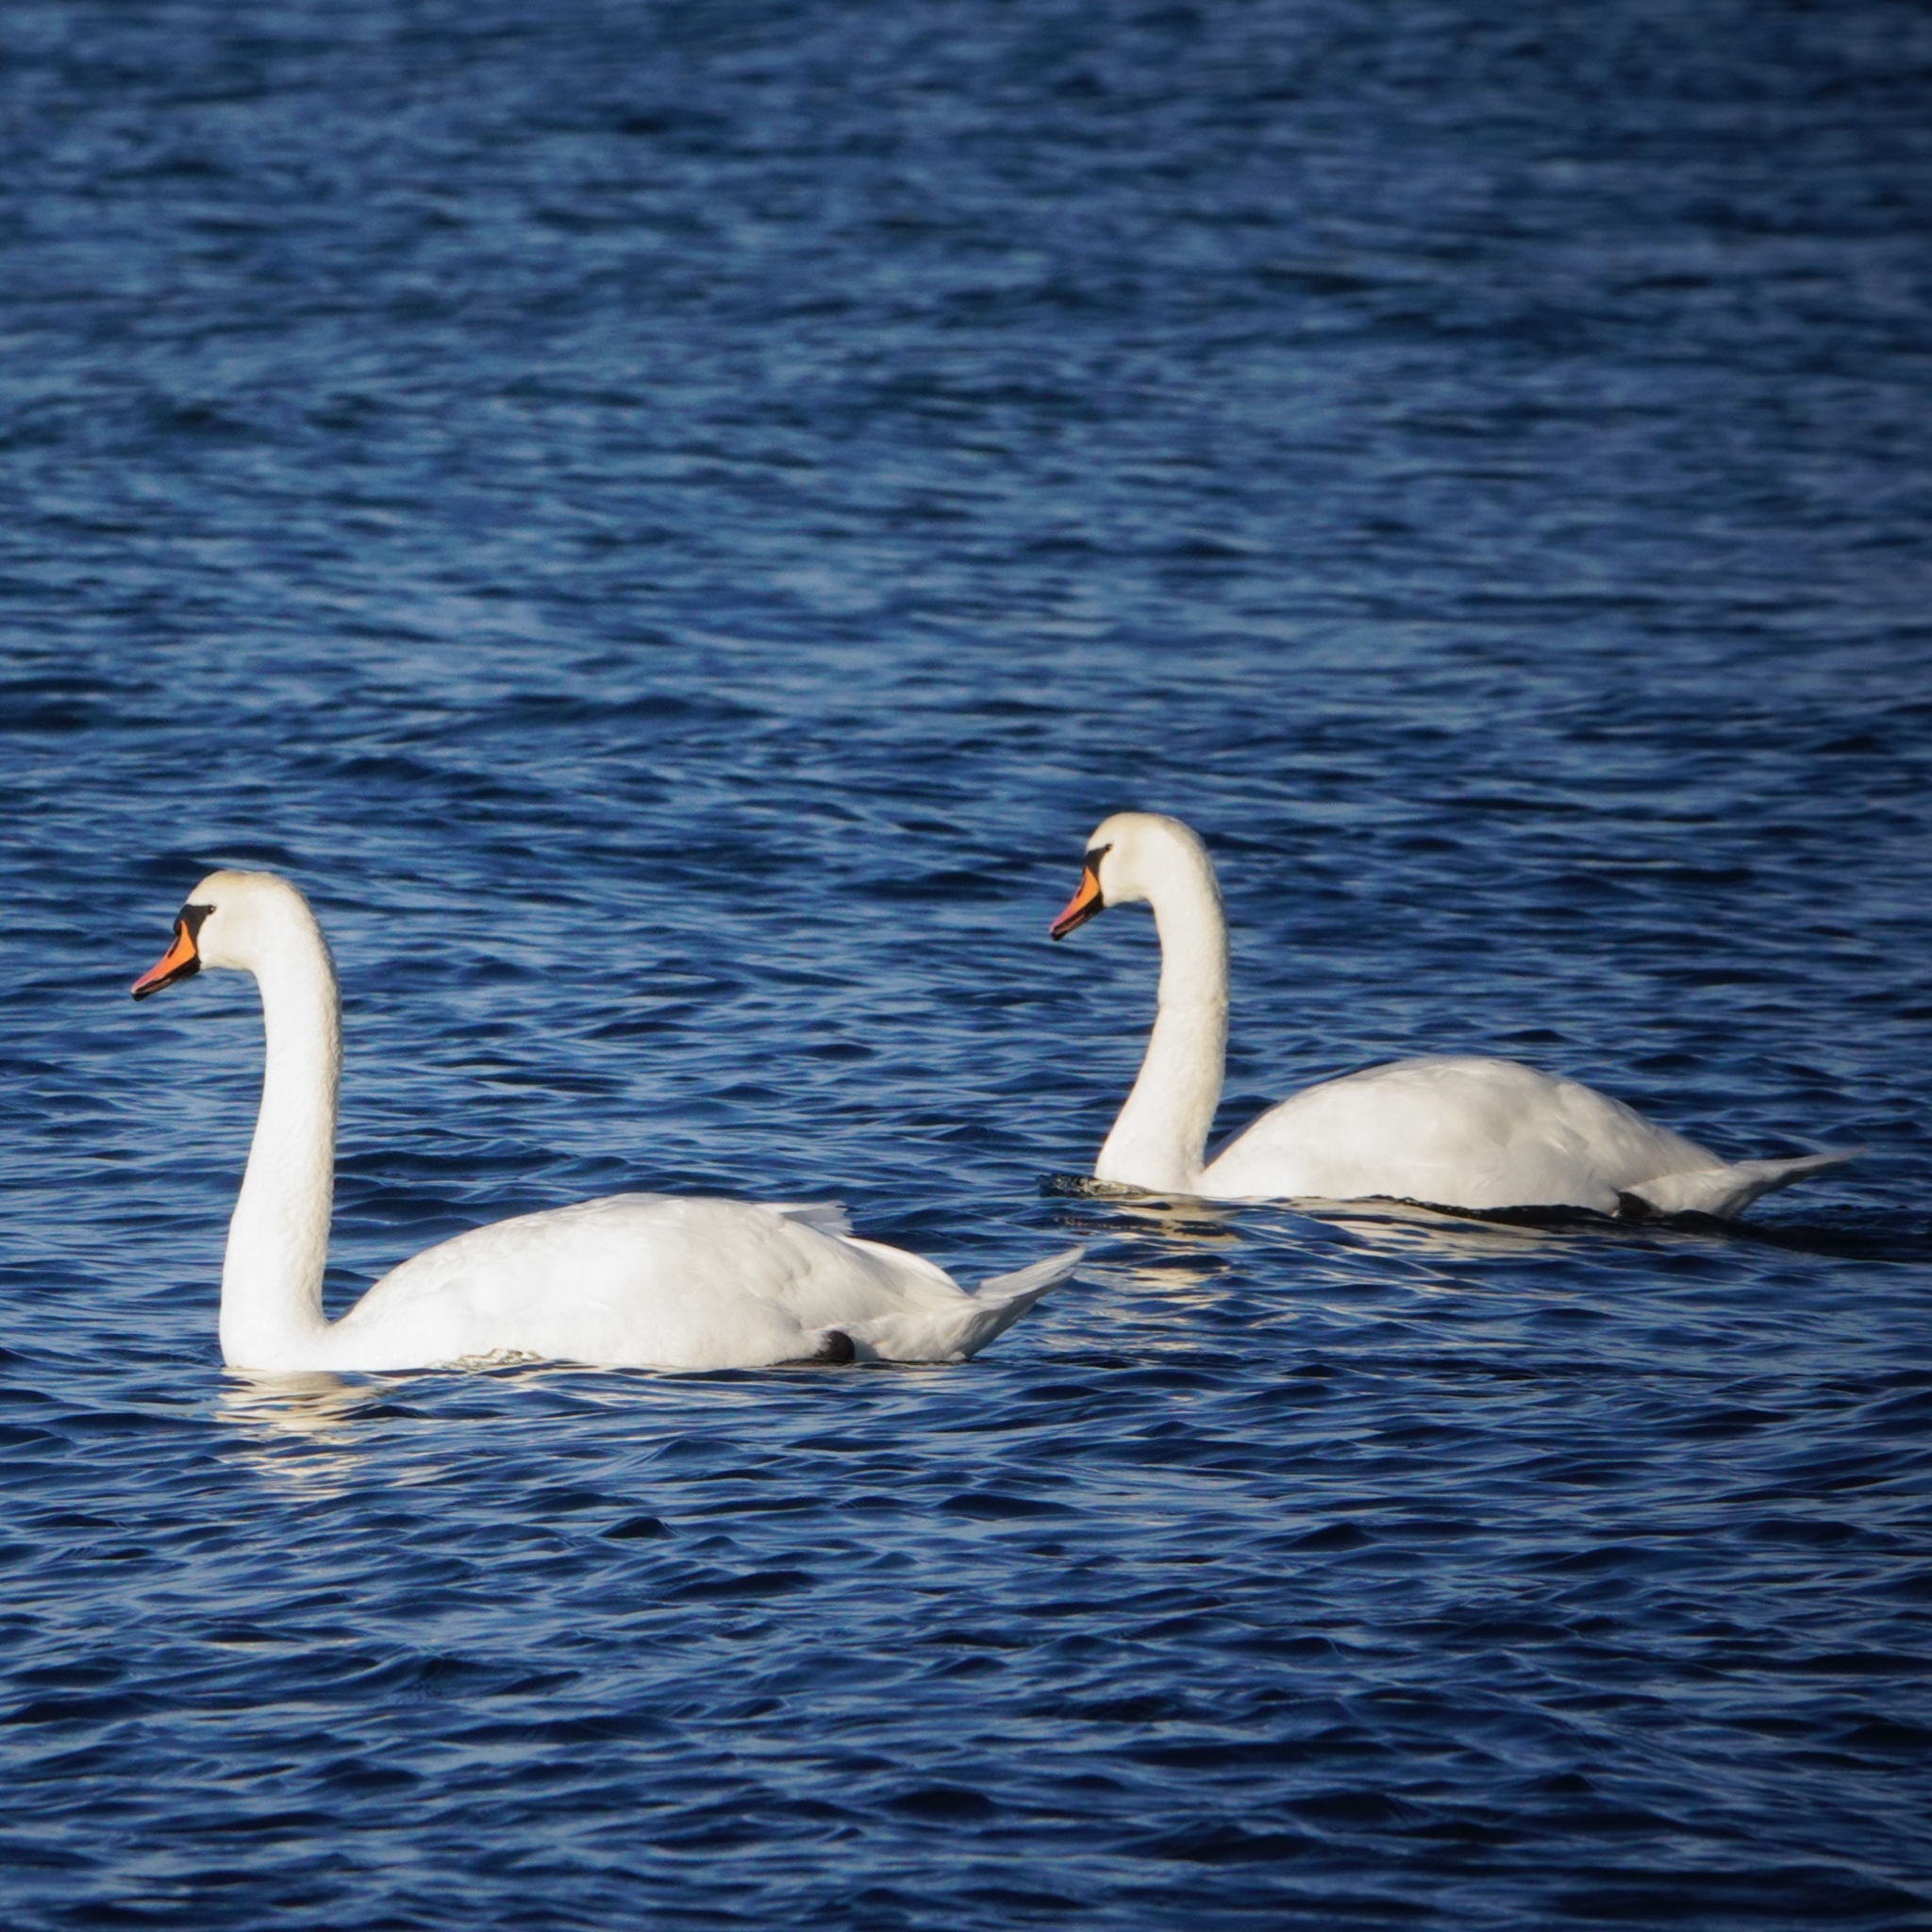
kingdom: Animalia
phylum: Chordata
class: Aves
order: Anseriformes
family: Anatidae
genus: Cygnus
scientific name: Cygnus olor
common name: Mute swan
